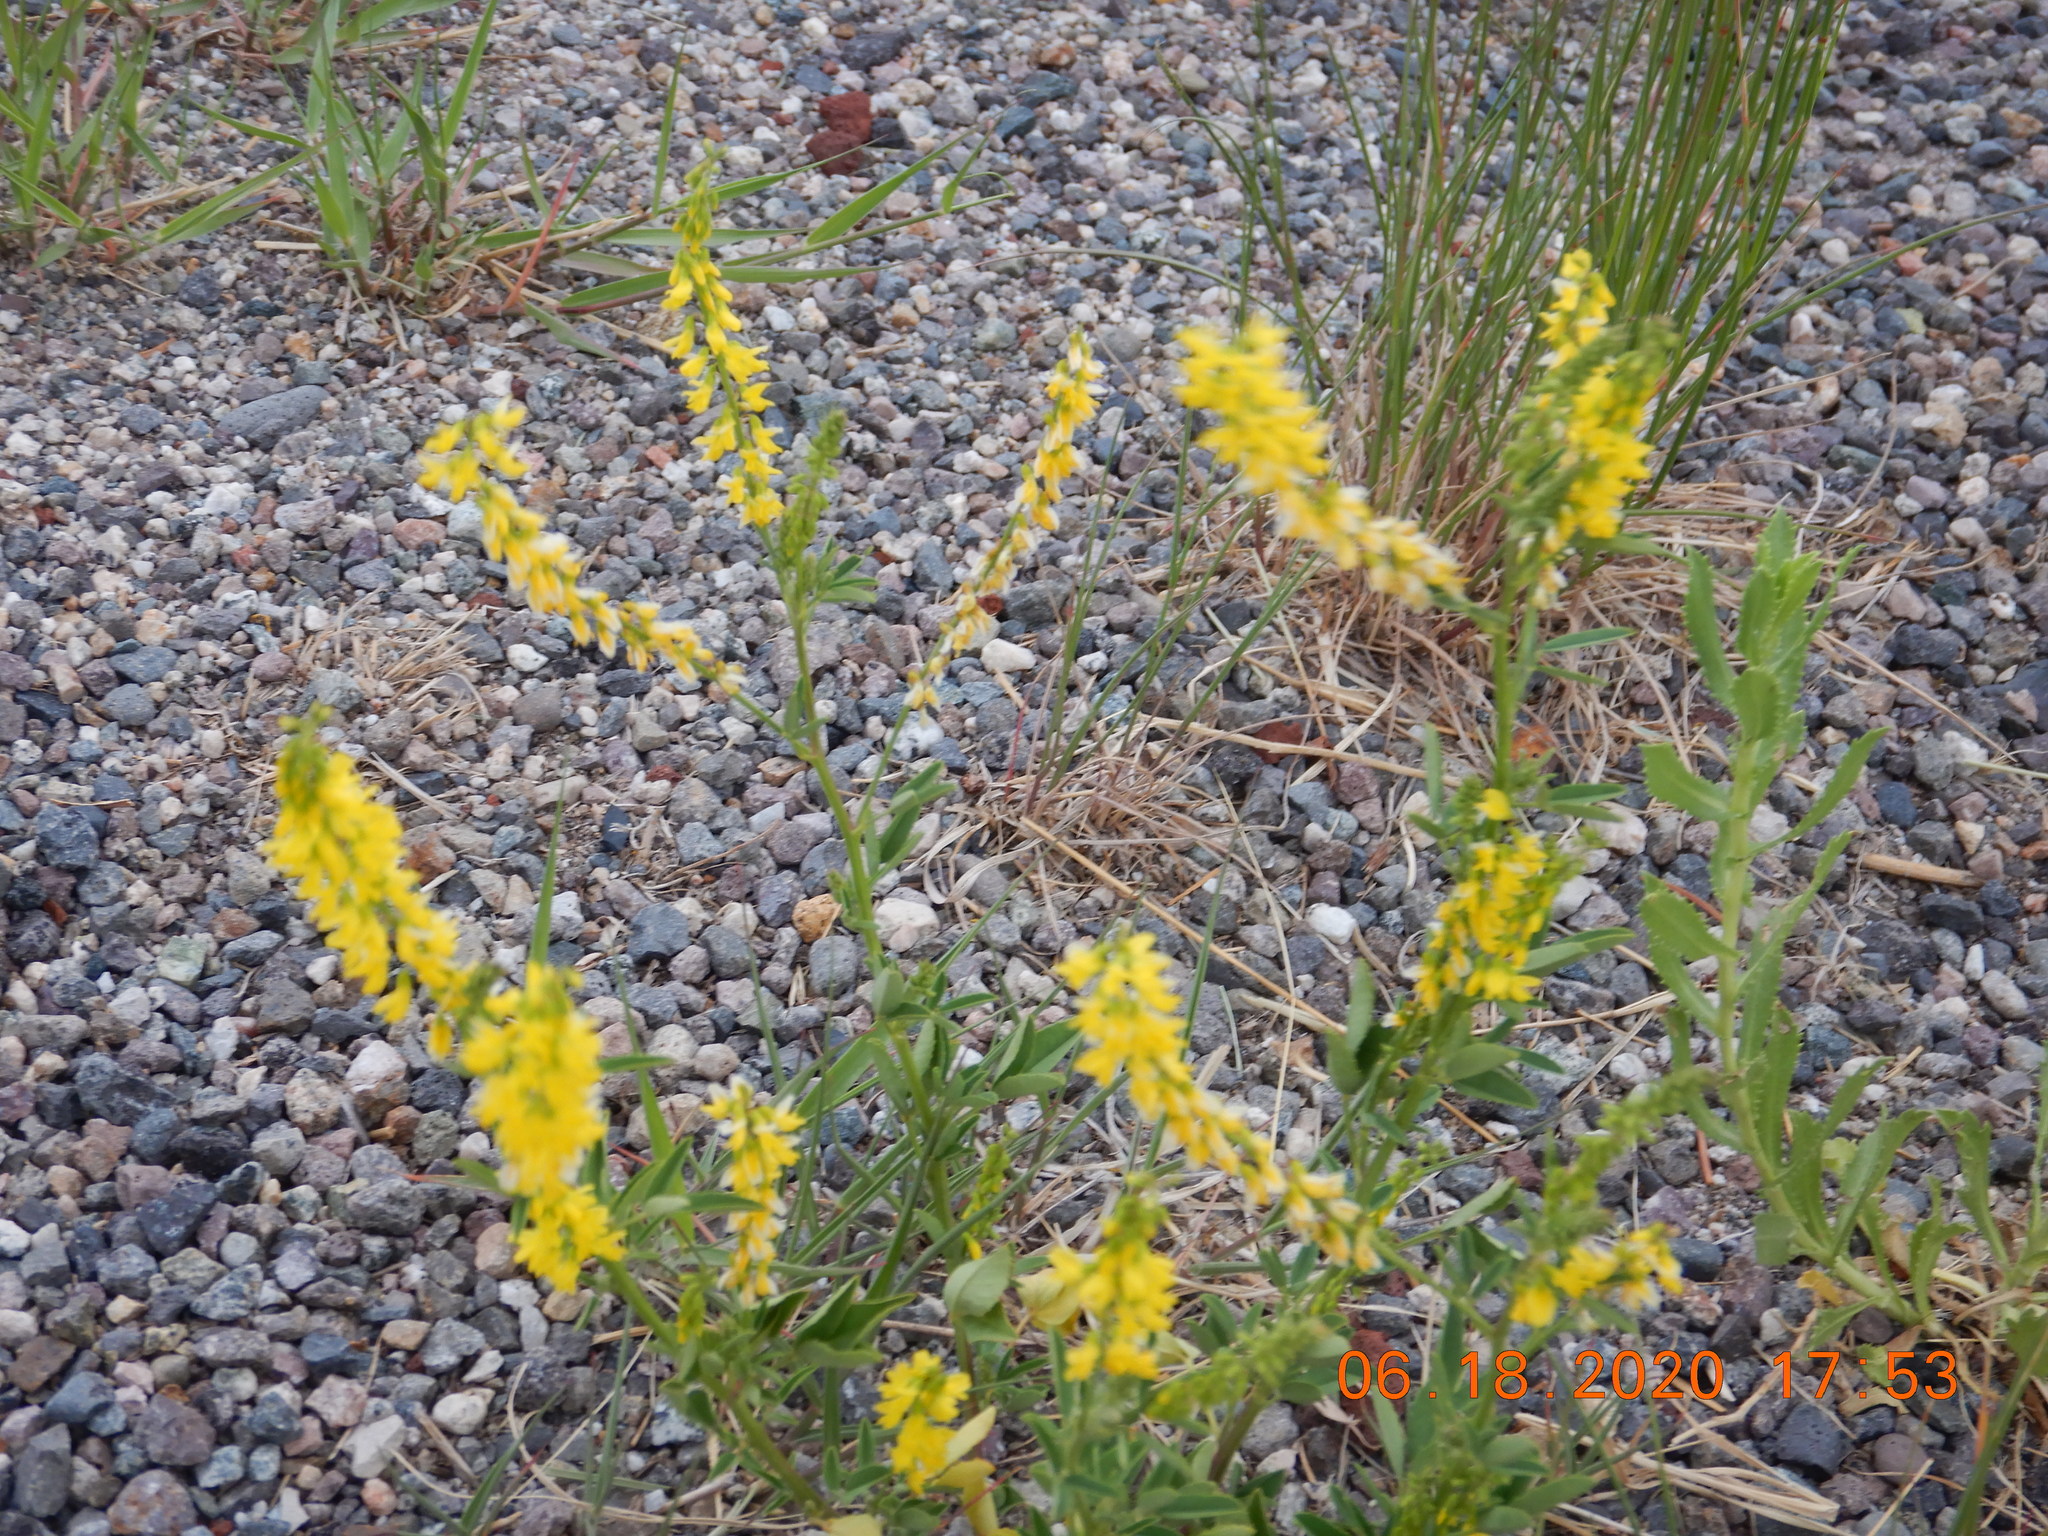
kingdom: Plantae
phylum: Tracheophyta
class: Magnoliopsida
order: Fabales
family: Fabaceae
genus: Melilotus
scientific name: Melilotus officinalis
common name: Sweetclover
